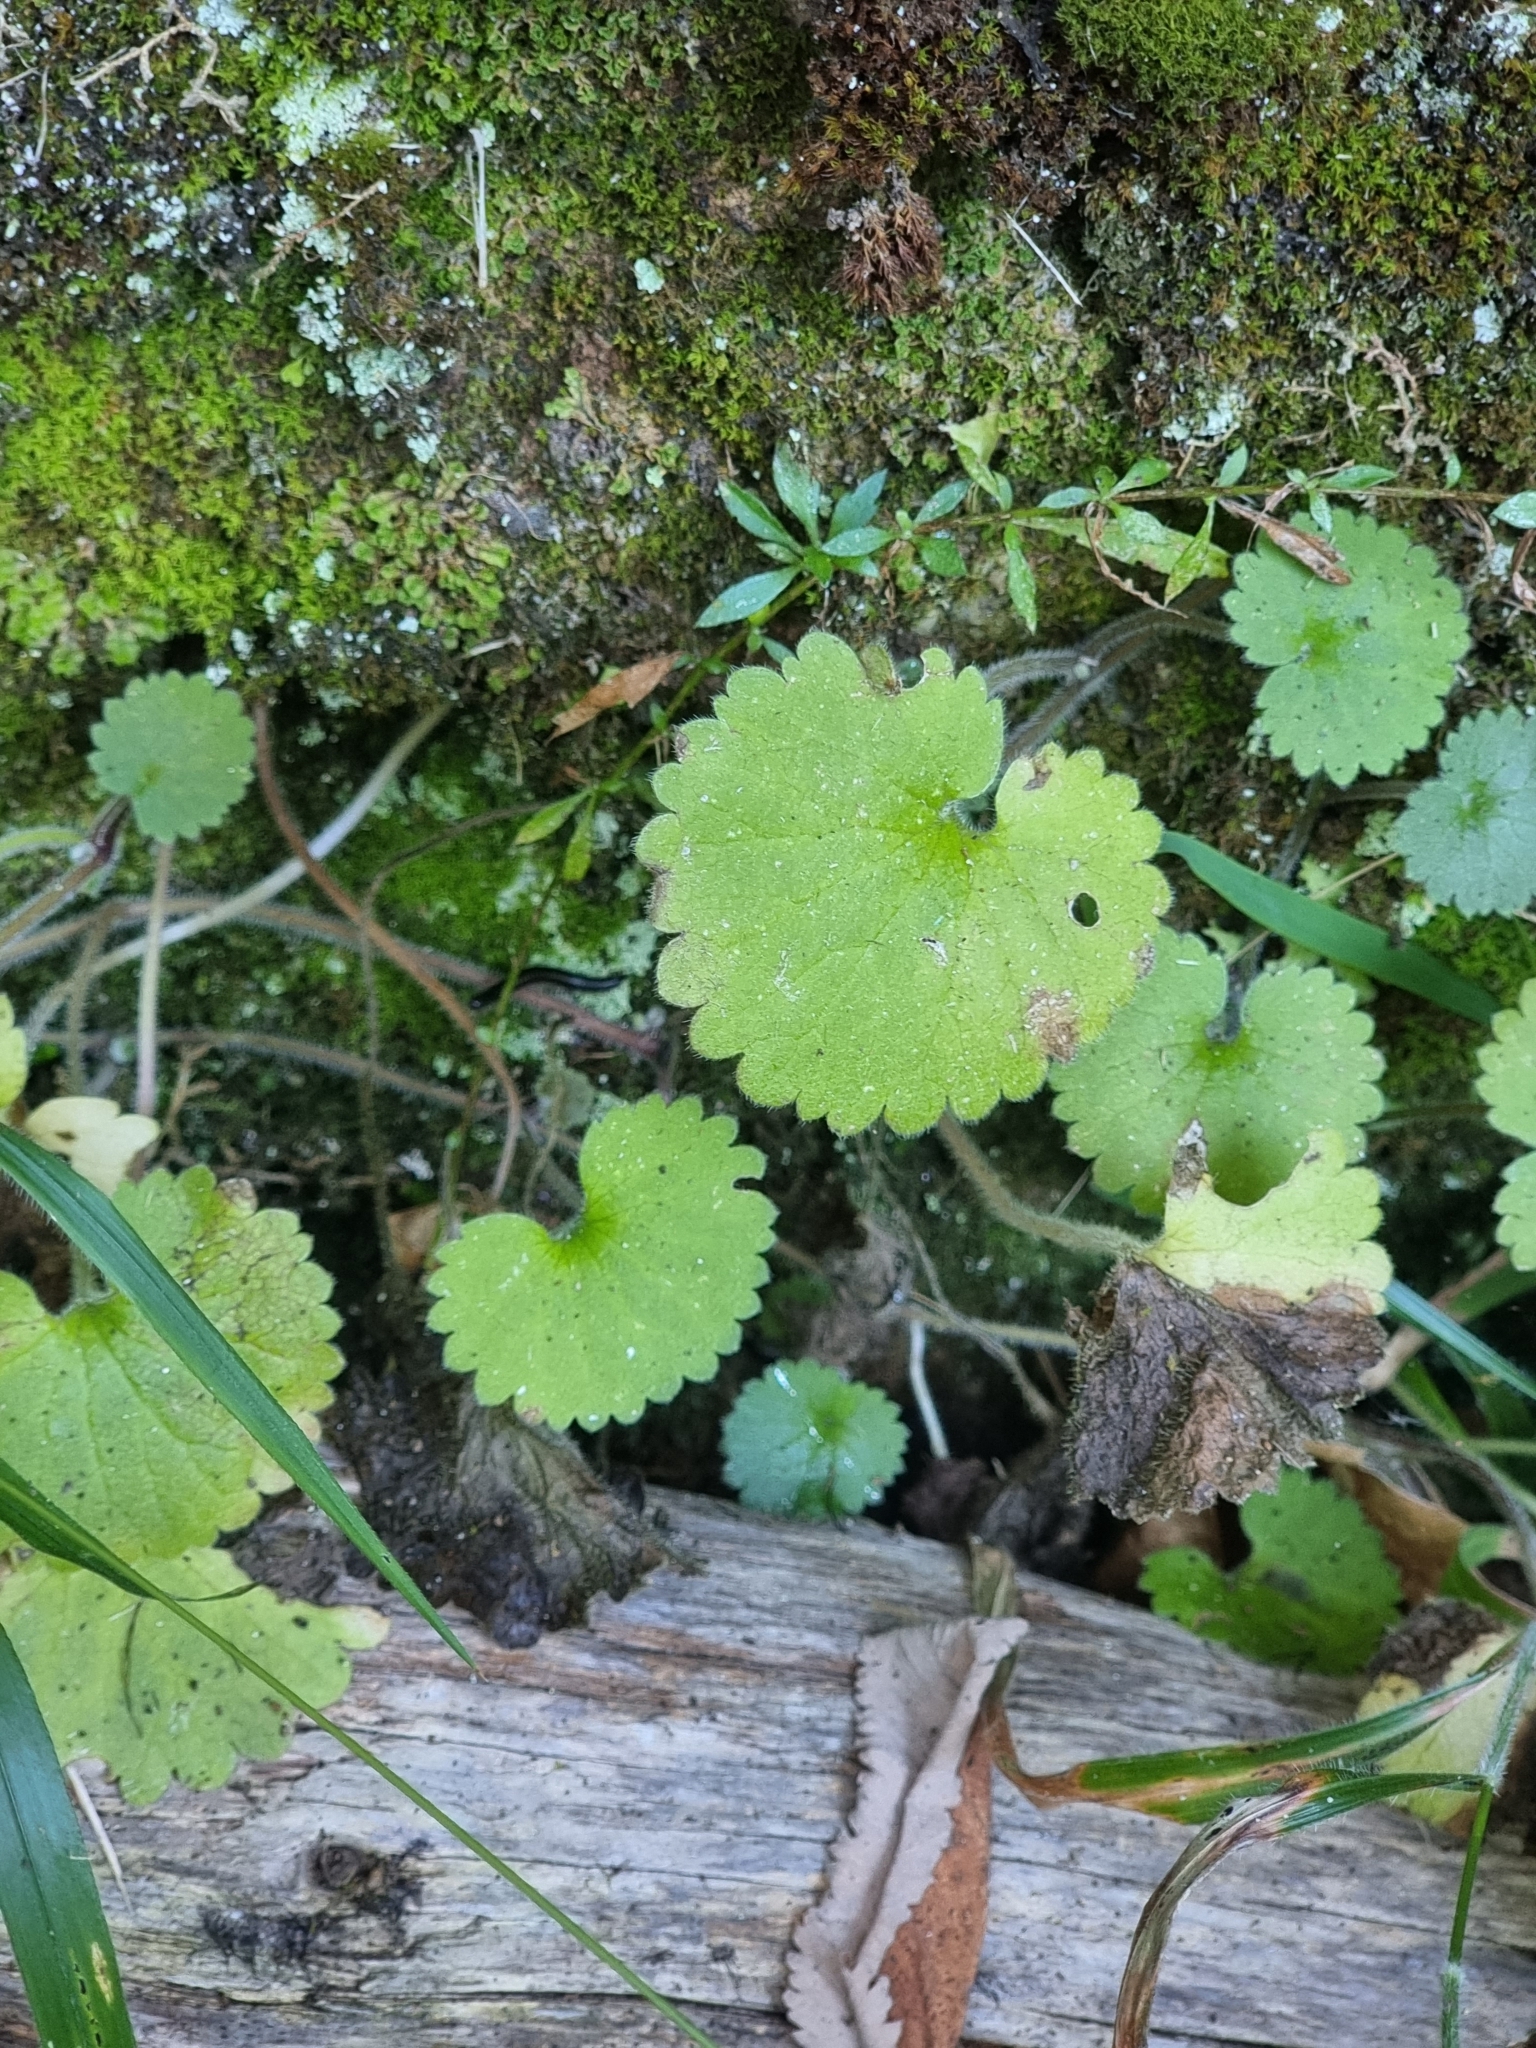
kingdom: Plantae
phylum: Tracheophyta
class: Magnoliopsida
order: Lamiales
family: Plantaginaceae
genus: Sibthorpia
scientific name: Sibthorpia peregrina
